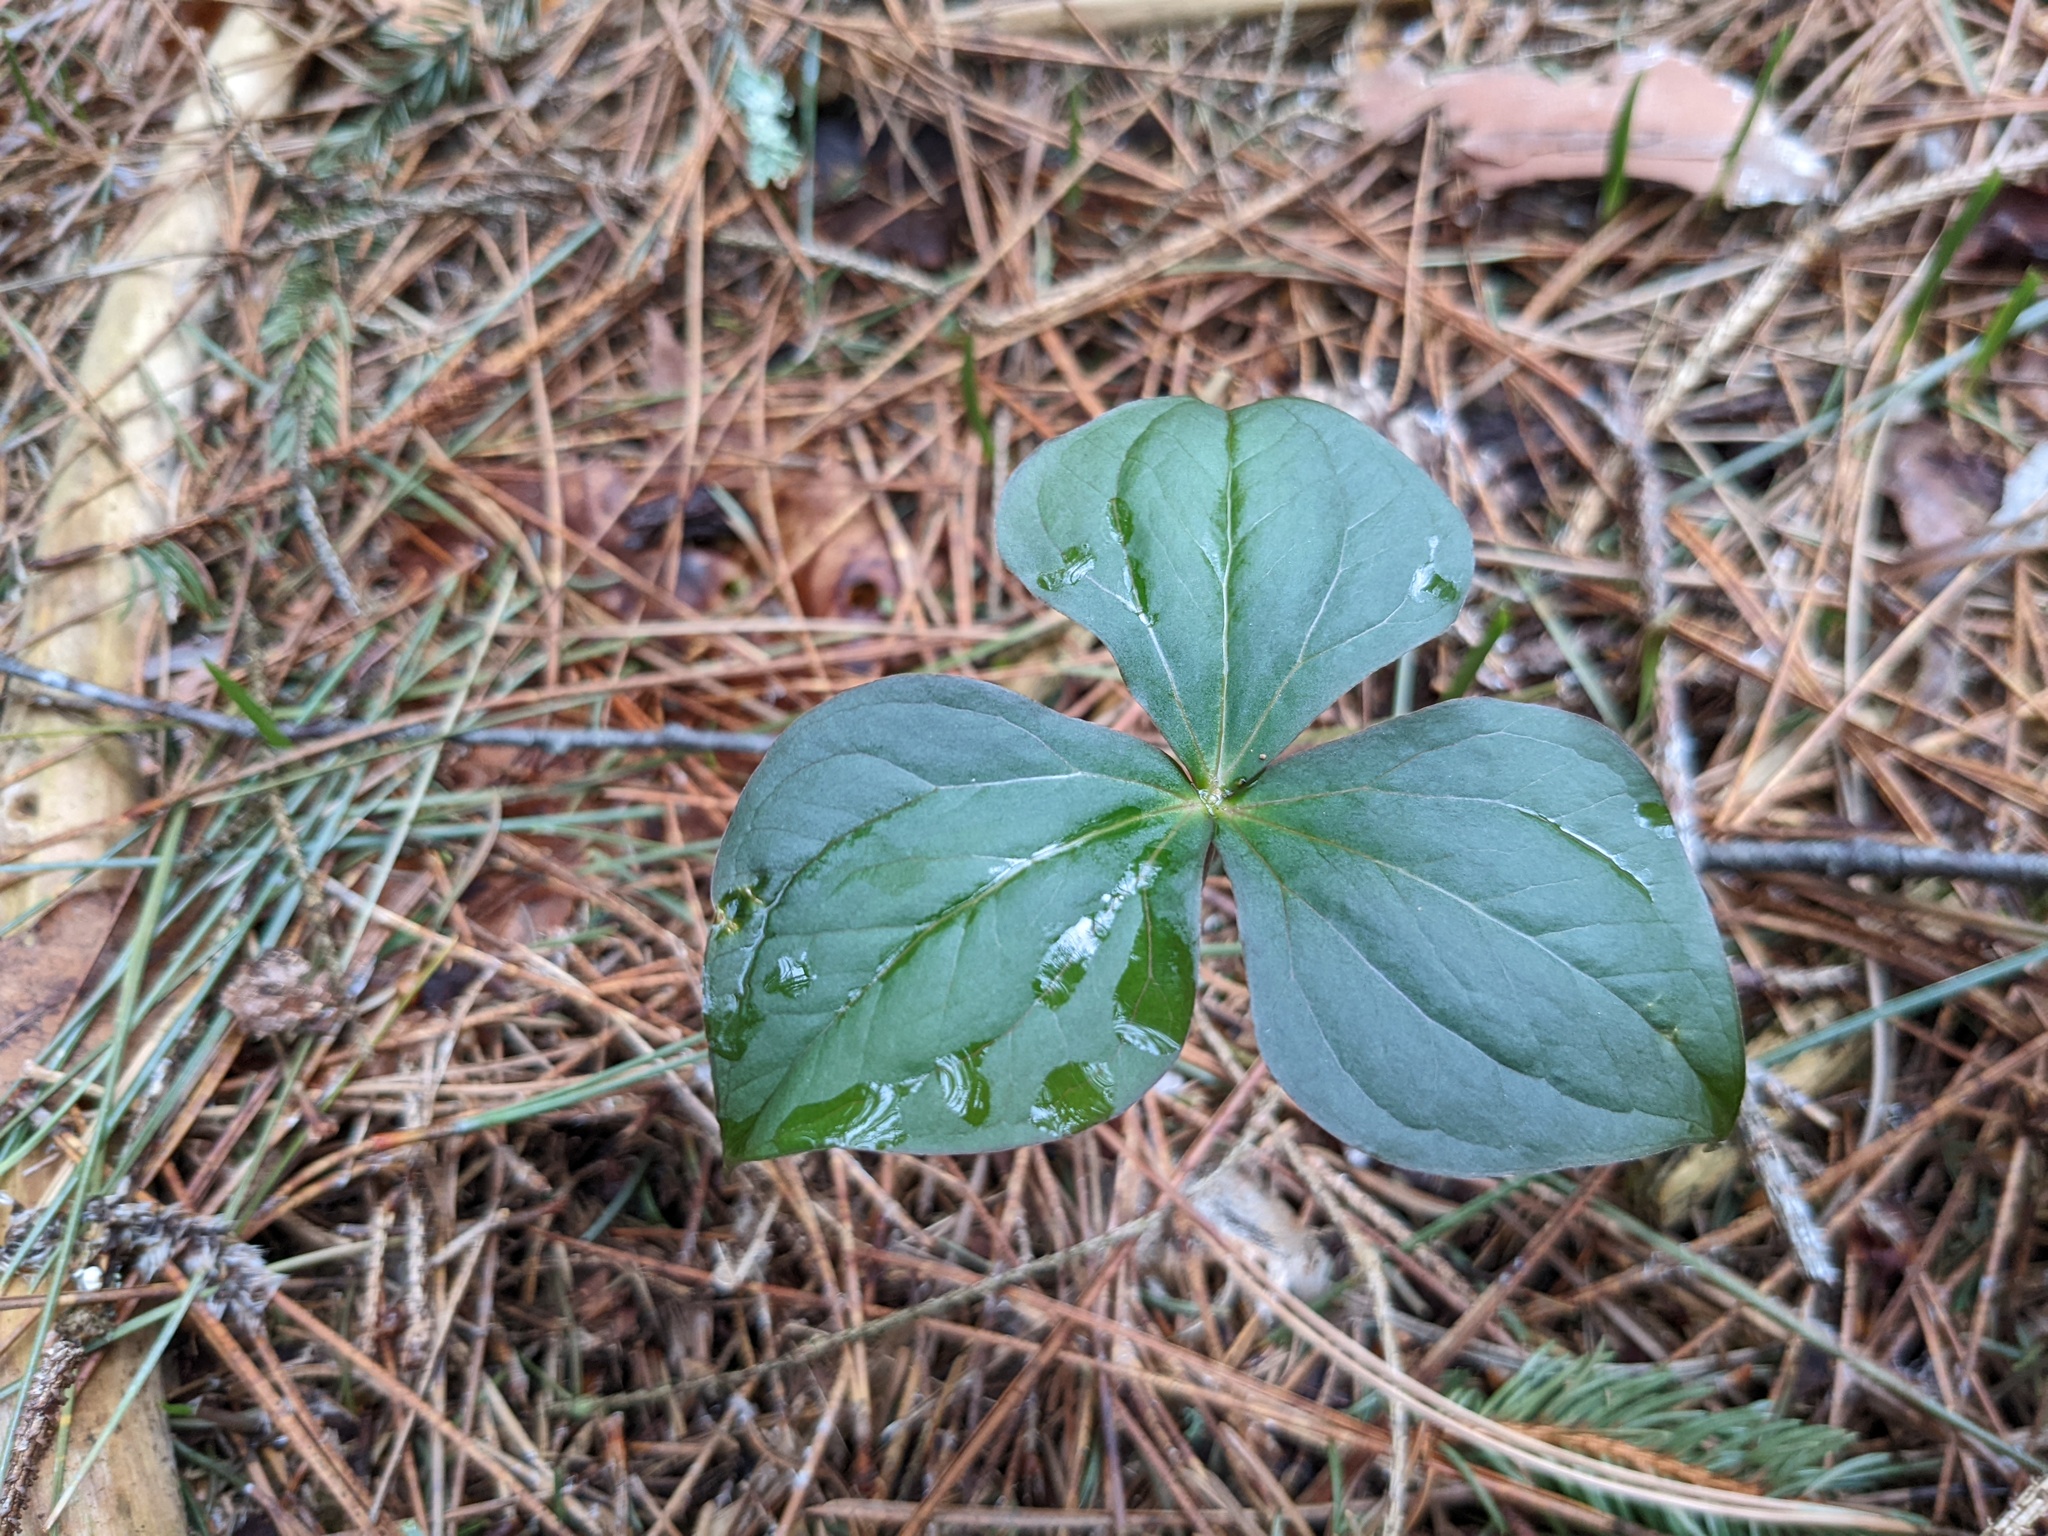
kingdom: Plantae
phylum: Tracheophyta
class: Liliopsida
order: Liliales
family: Melanthiaceae
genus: Trillium
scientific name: Trillium erectum
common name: Purple trillium
